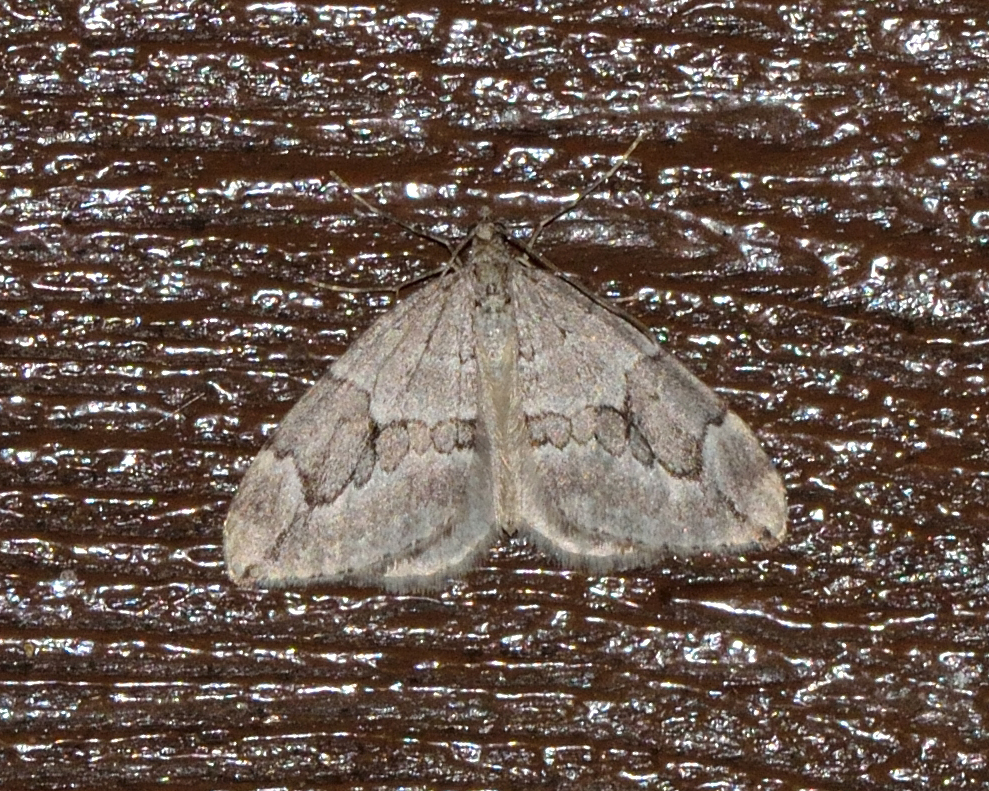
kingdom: Animalia
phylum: Arthropoda
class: Insecta
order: Lepidoptera
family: Geometridae
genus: Thera
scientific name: Thera juniperata
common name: Juniper carpet
